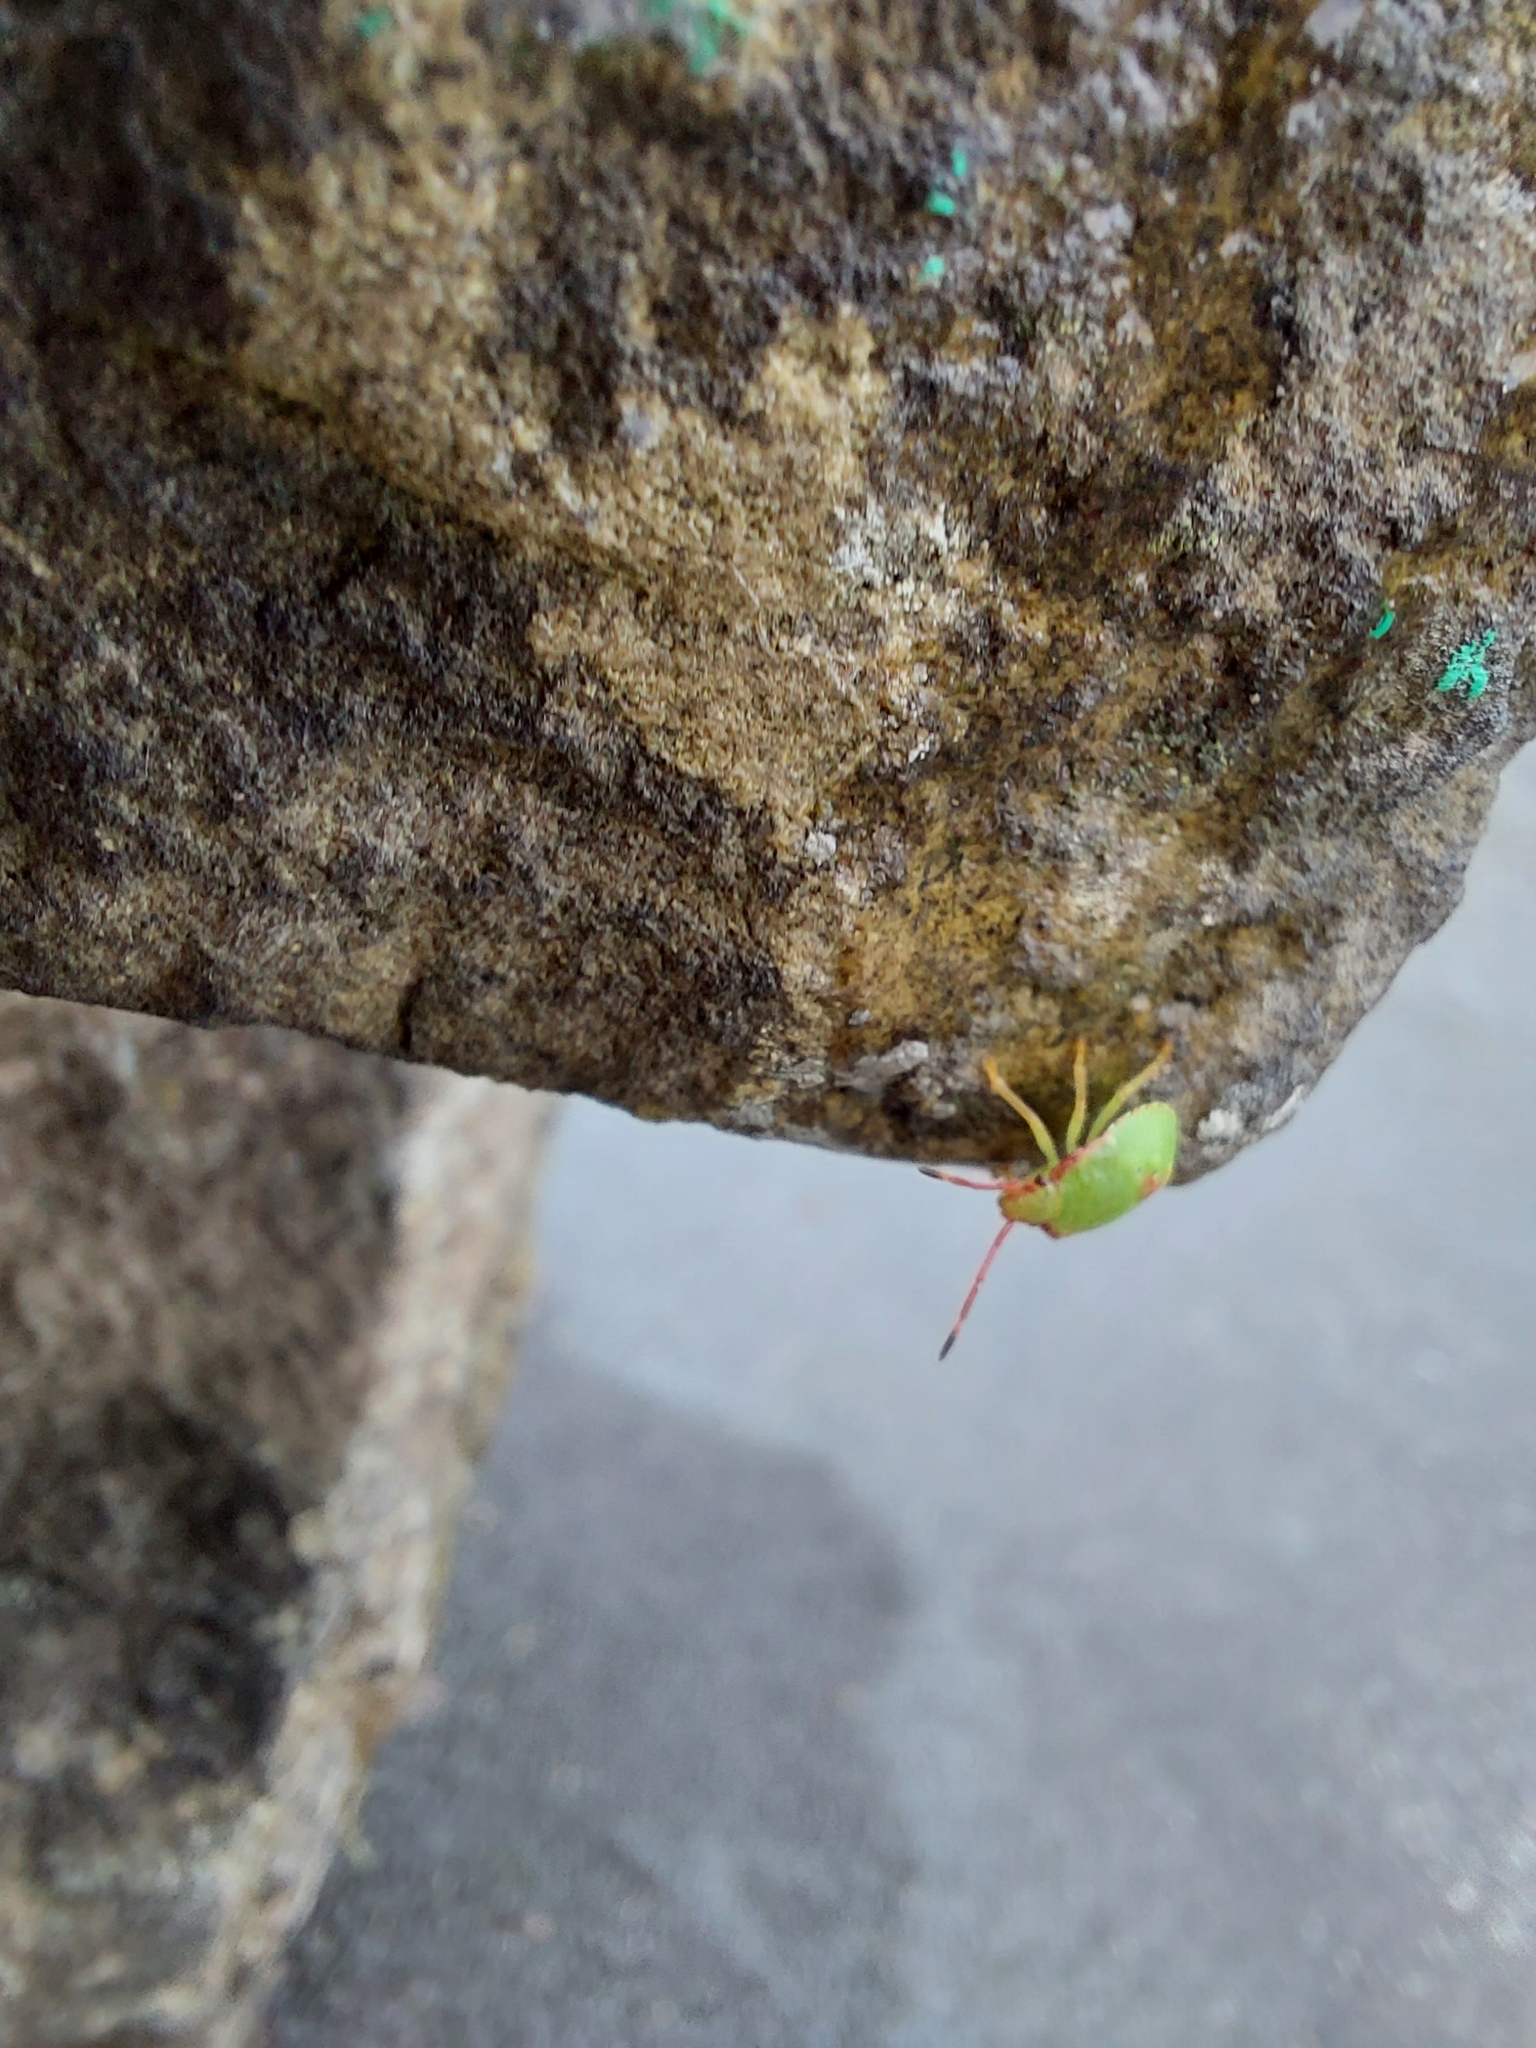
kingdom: Animalia
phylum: Arthropoda
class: Insecta
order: Hemiptera
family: Acanthosomatidae
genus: Acanthosoma
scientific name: Acanthosoma haemorrhoidale
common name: Hawthorn shieldbug
